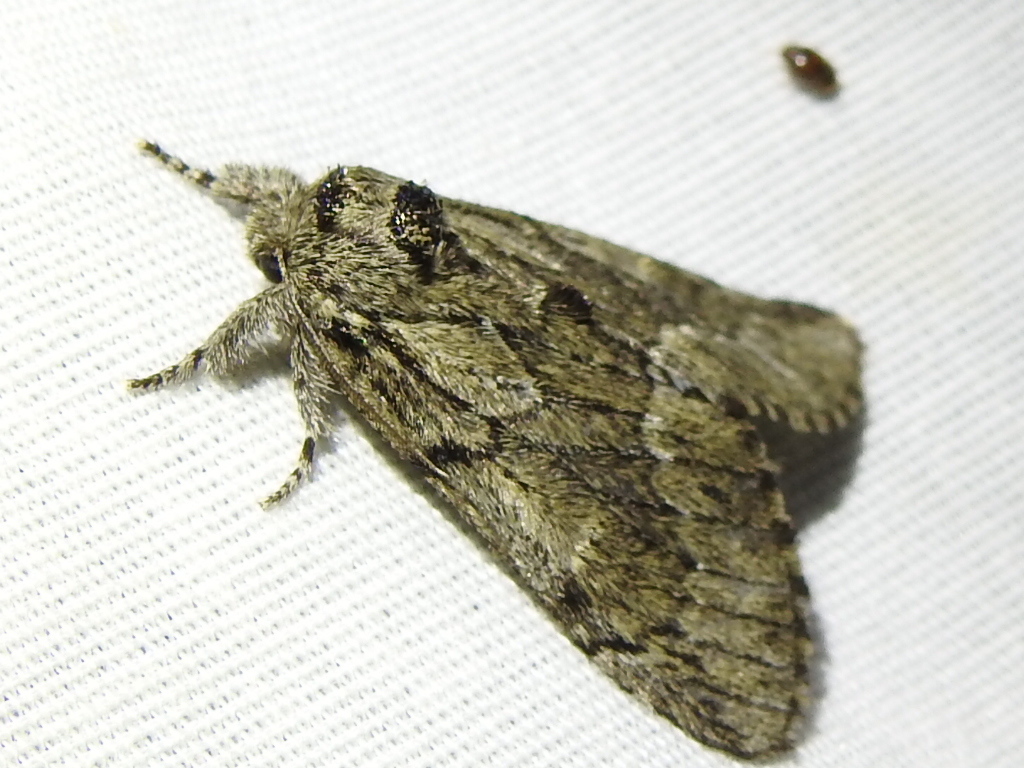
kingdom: Animalia
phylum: Arthropoda
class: Insecta
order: Lepidoptera
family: Notodontidae
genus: Paraeschra
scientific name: Paraeschra georgica
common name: Georgian prominent
